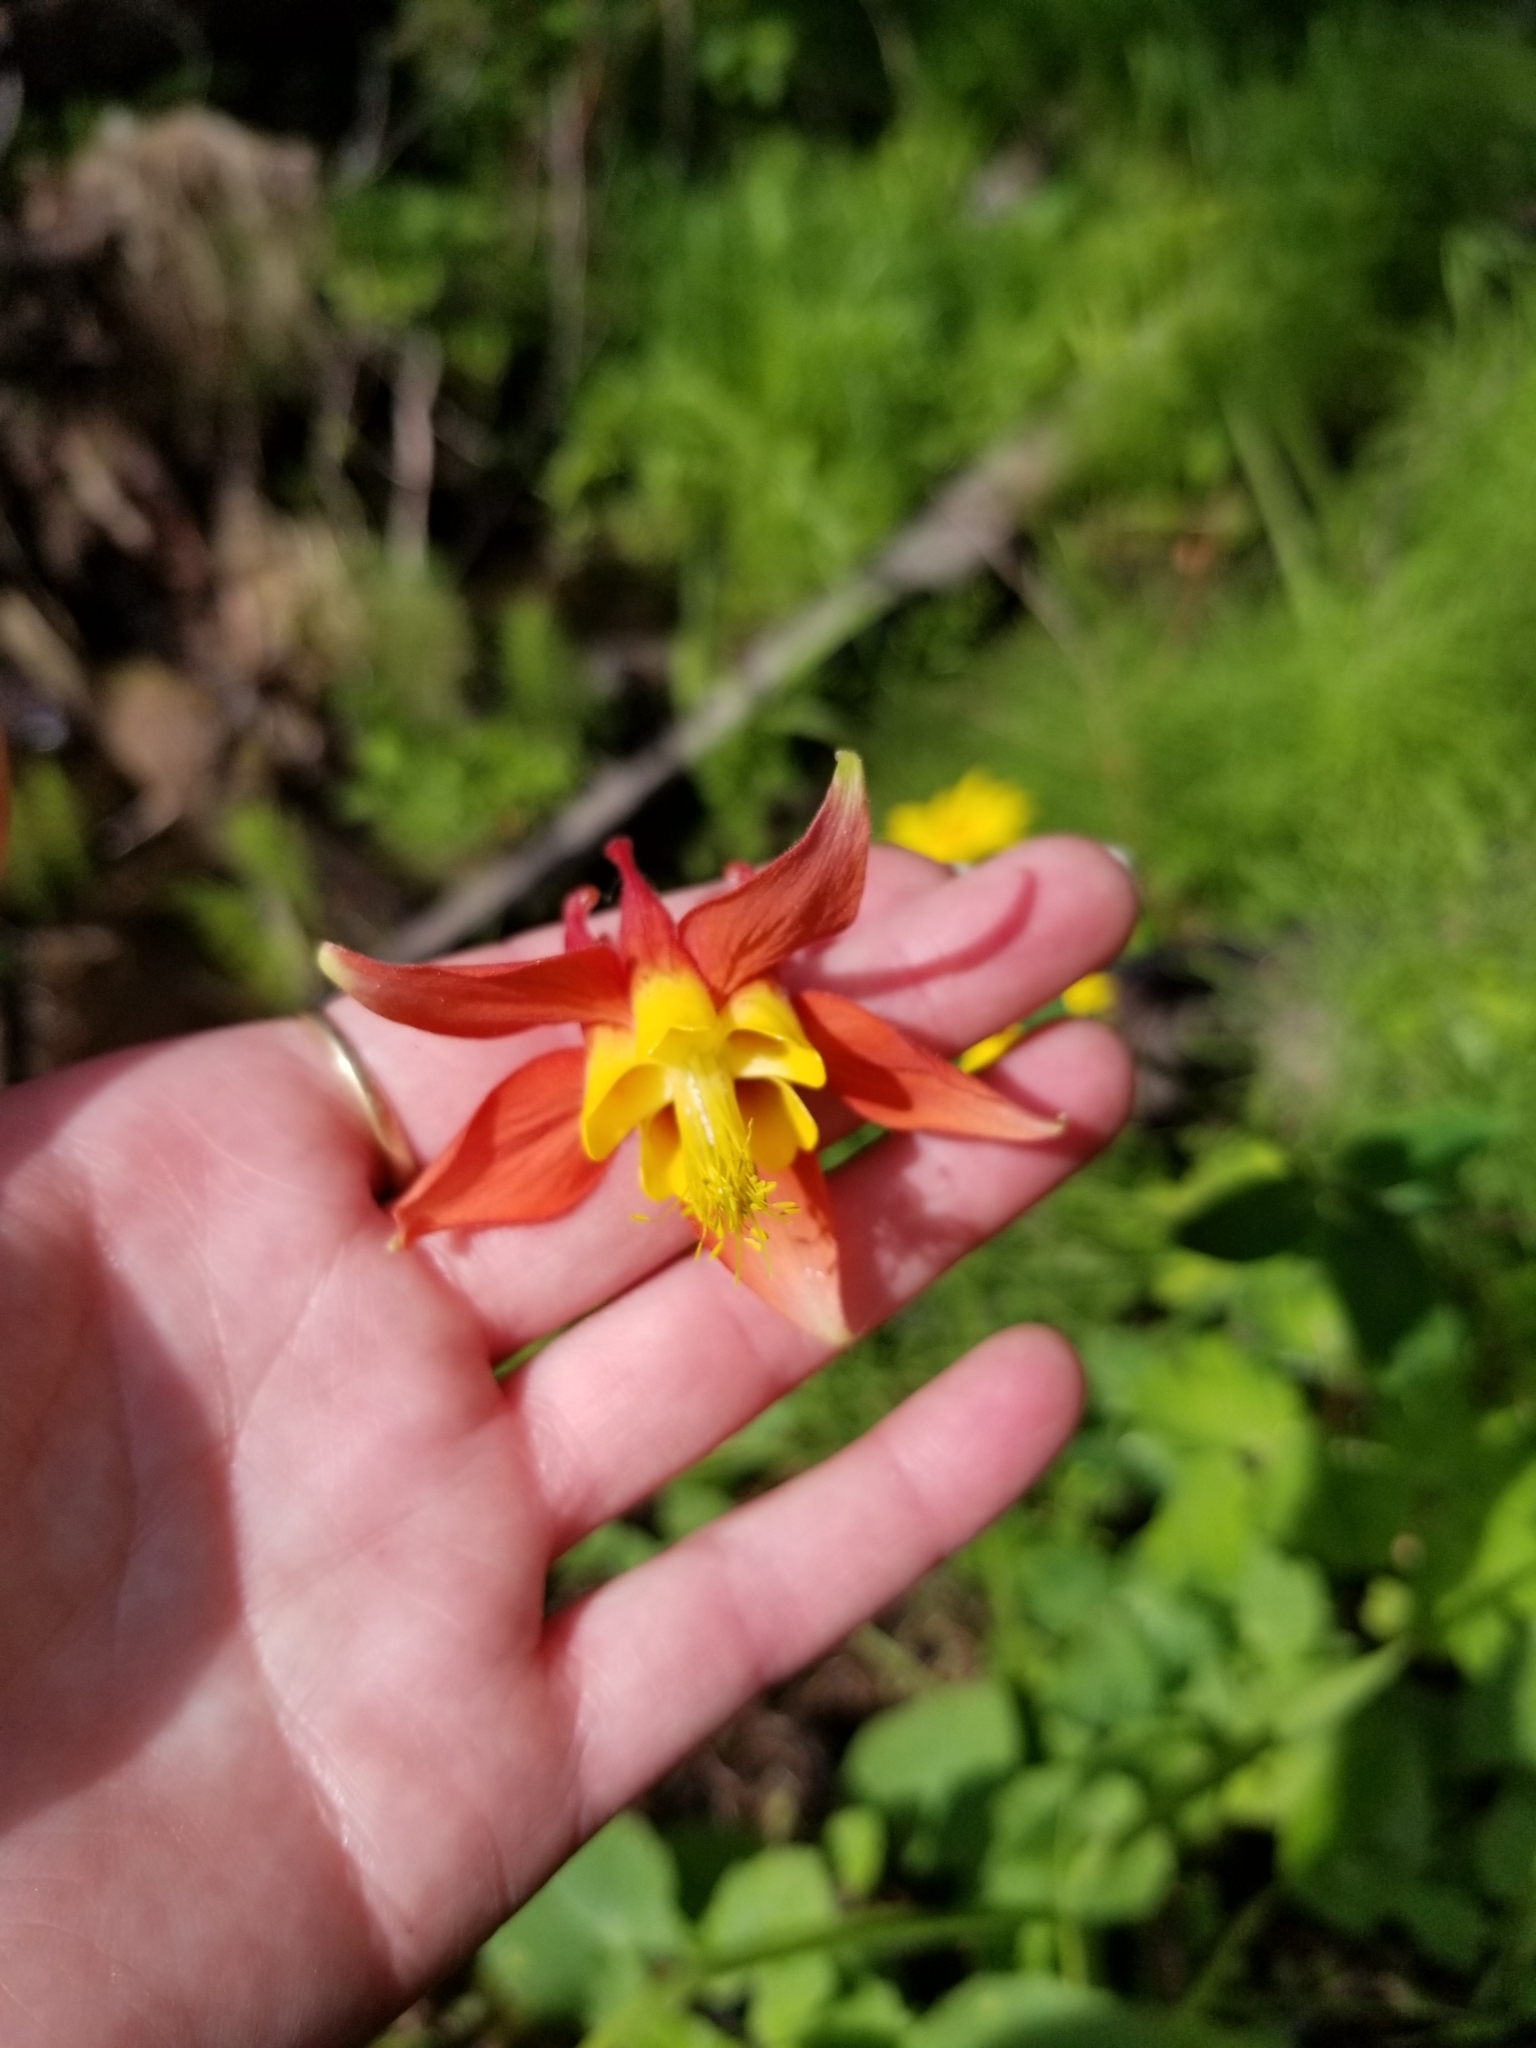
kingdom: Plantae
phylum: Tracheophyta
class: Magnoliopsida
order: Ranunculales
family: Ranunculaceae
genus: Aquilegia
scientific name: Aquilegia formosa
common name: Sitka columbine
